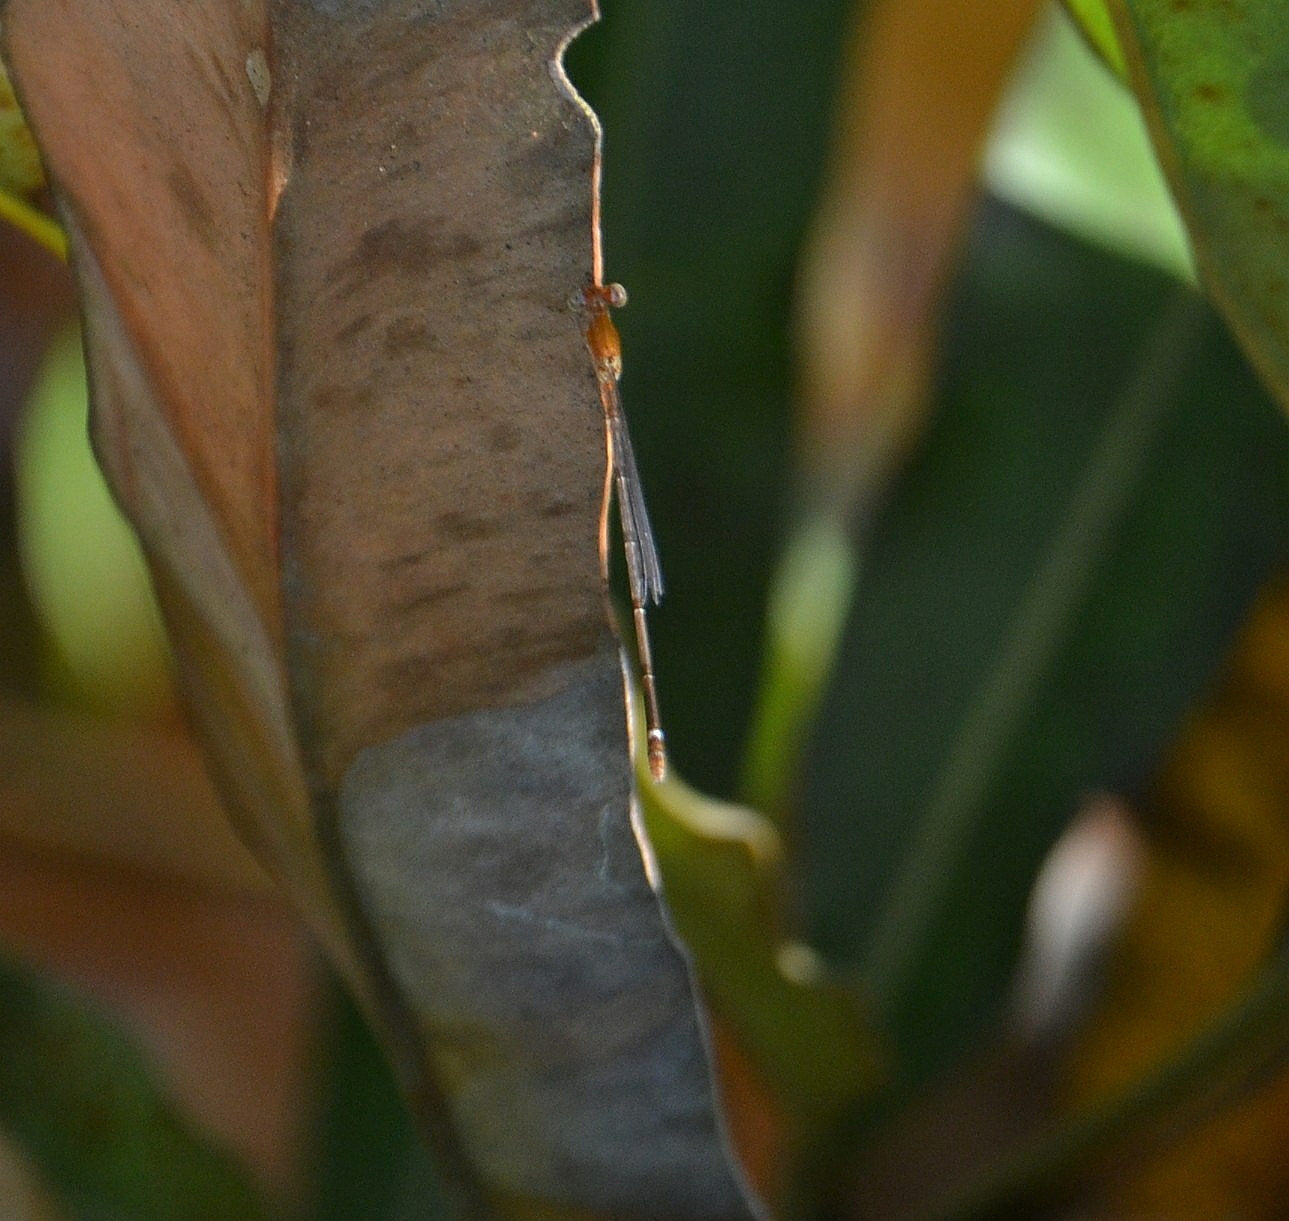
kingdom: Animalia
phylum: Arthropoda
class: Insecta
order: Odonata
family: Coenagrionidae
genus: Mortonagrion
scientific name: Mortonagrion varralli
